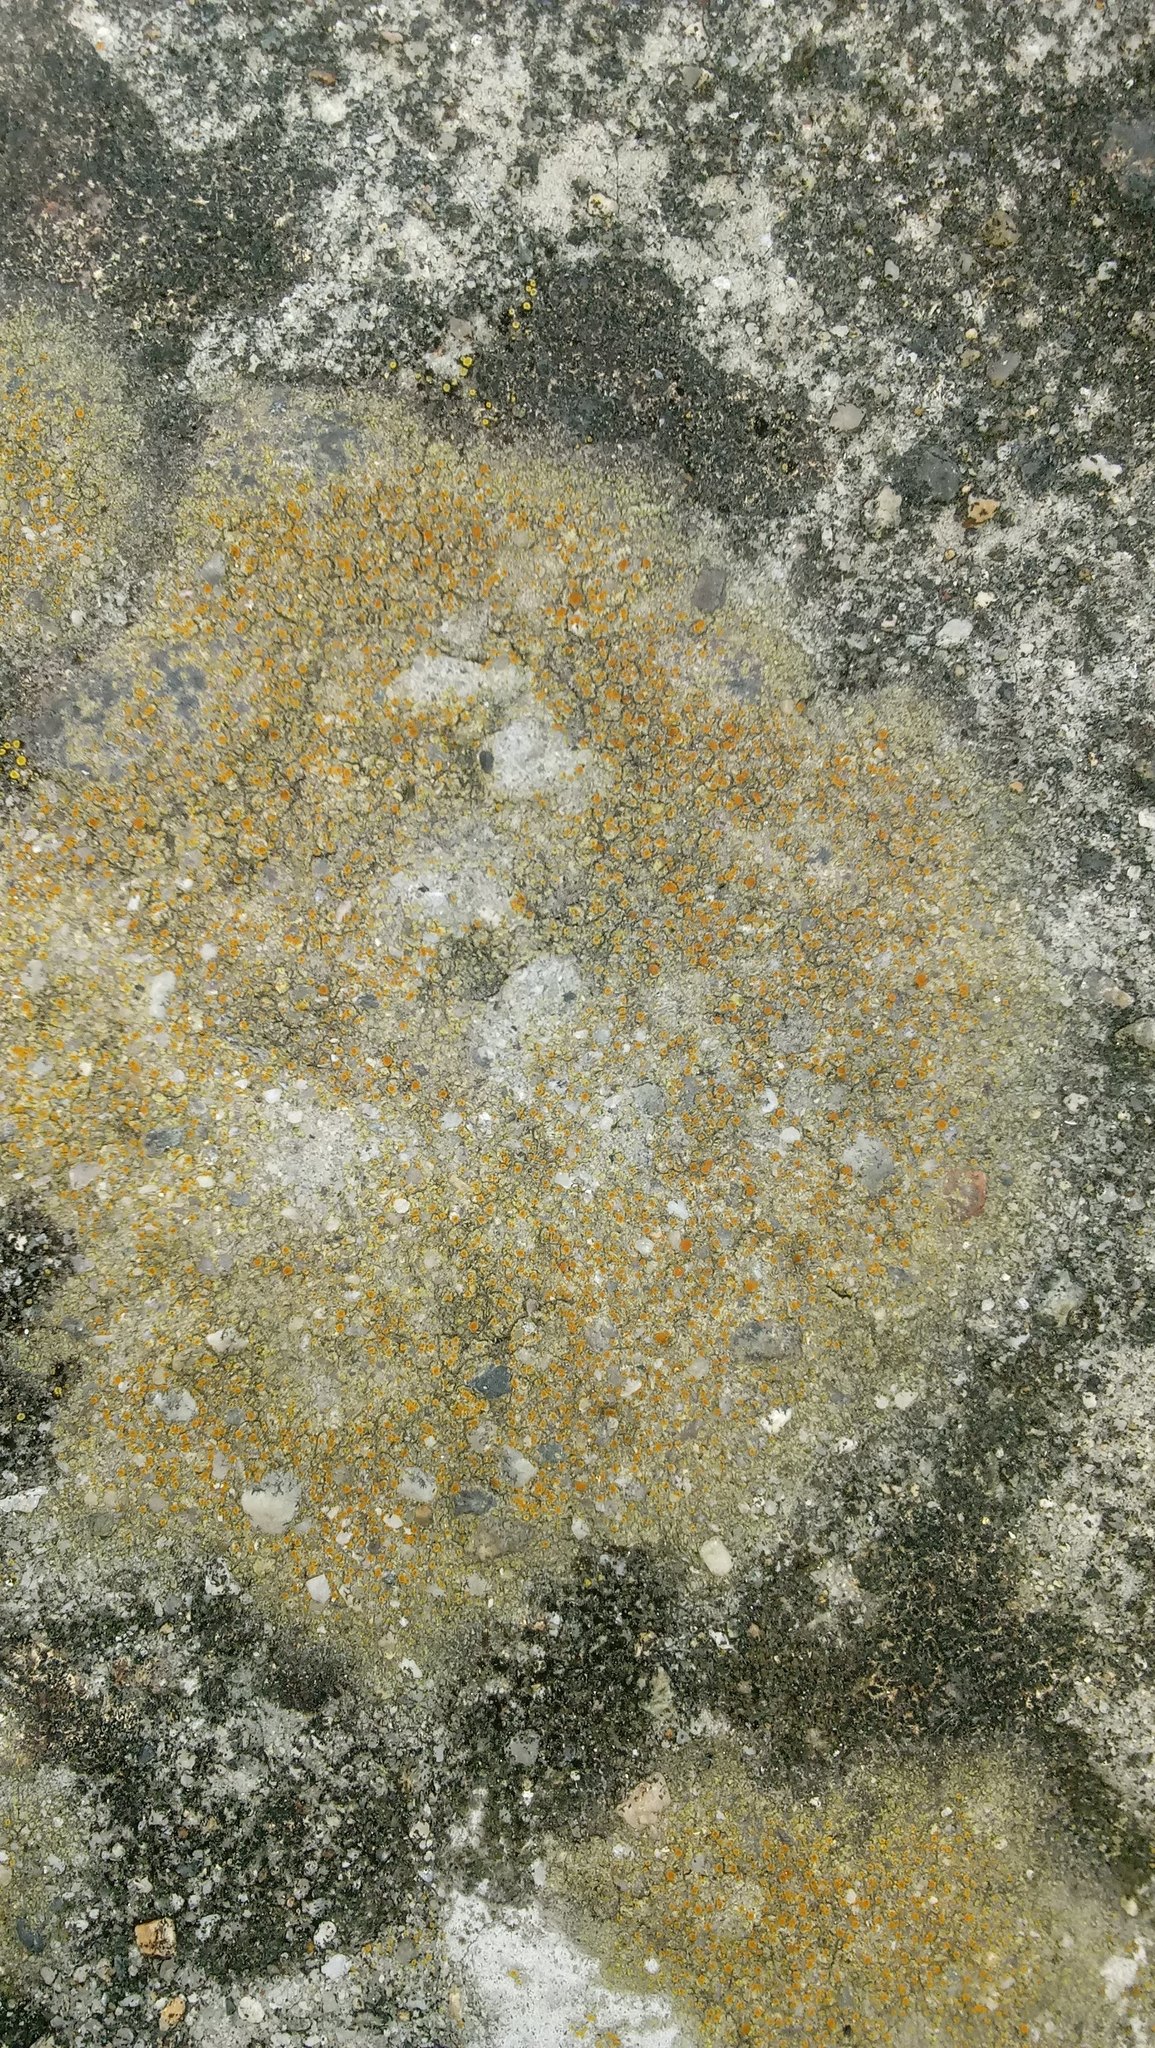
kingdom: Fungi
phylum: Ascomycota
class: Lecanoromycetes
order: Teloschistales
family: Teloschistaceae
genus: Gyalolechia
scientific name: Gyalolechia flavovirescens
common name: Sulphur firedot
